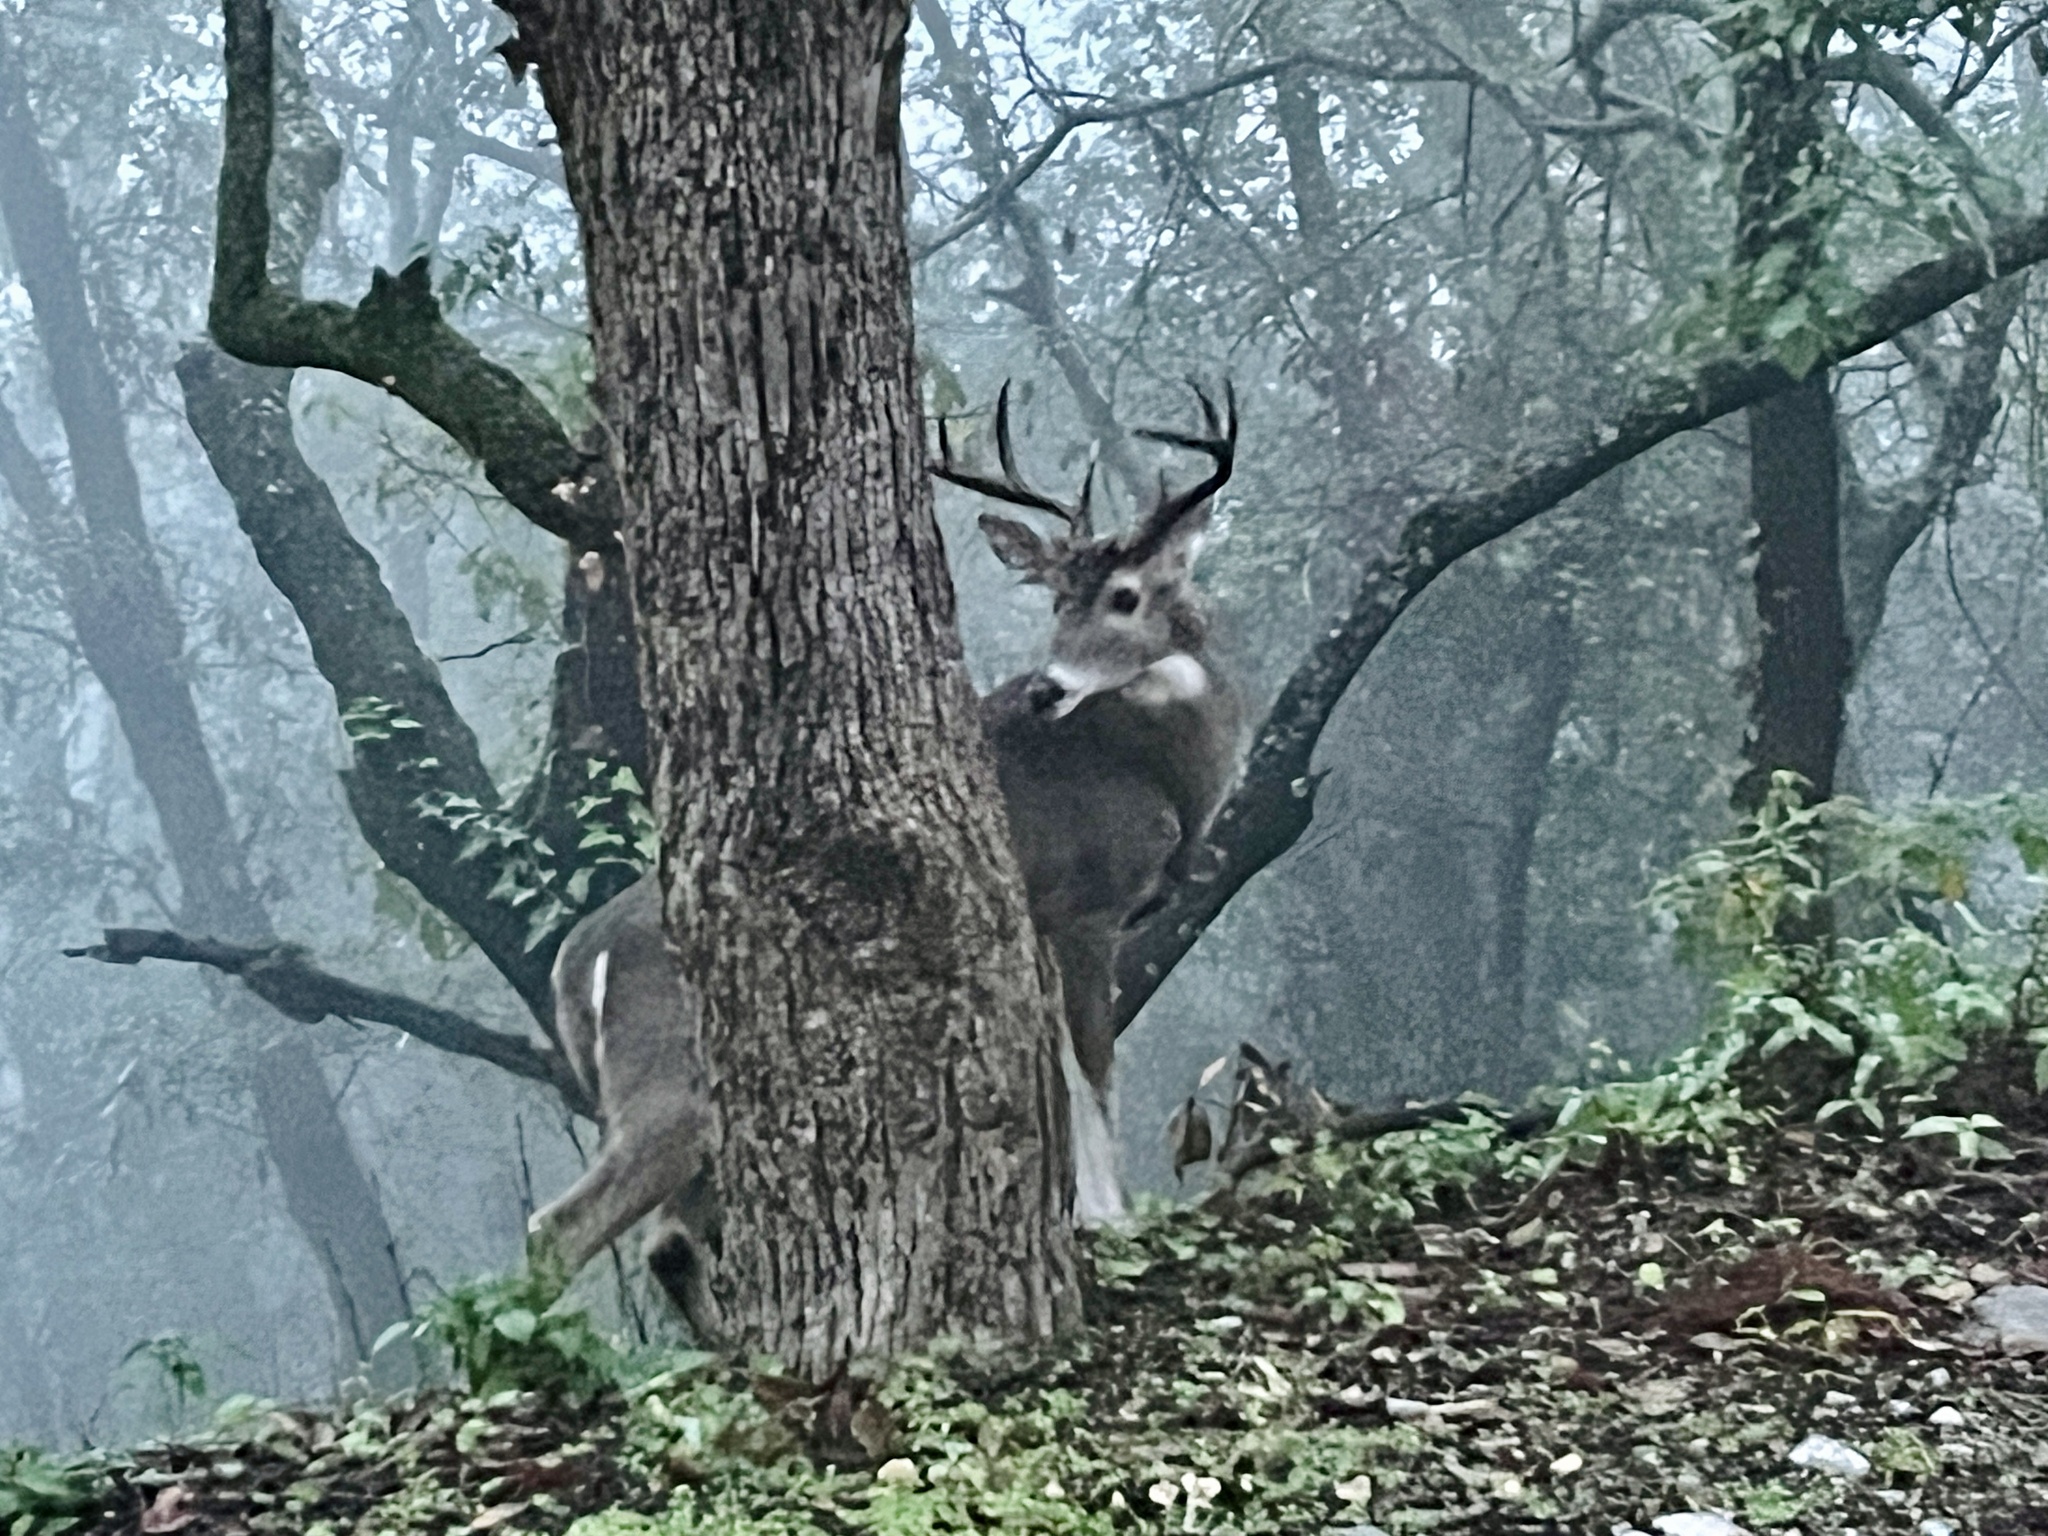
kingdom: Animalia
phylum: Chordata
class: Mammalia
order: Artiodactyla
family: Cervidae
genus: Odocoileus
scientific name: Odocoileus virginianus
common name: White-tailed deer
